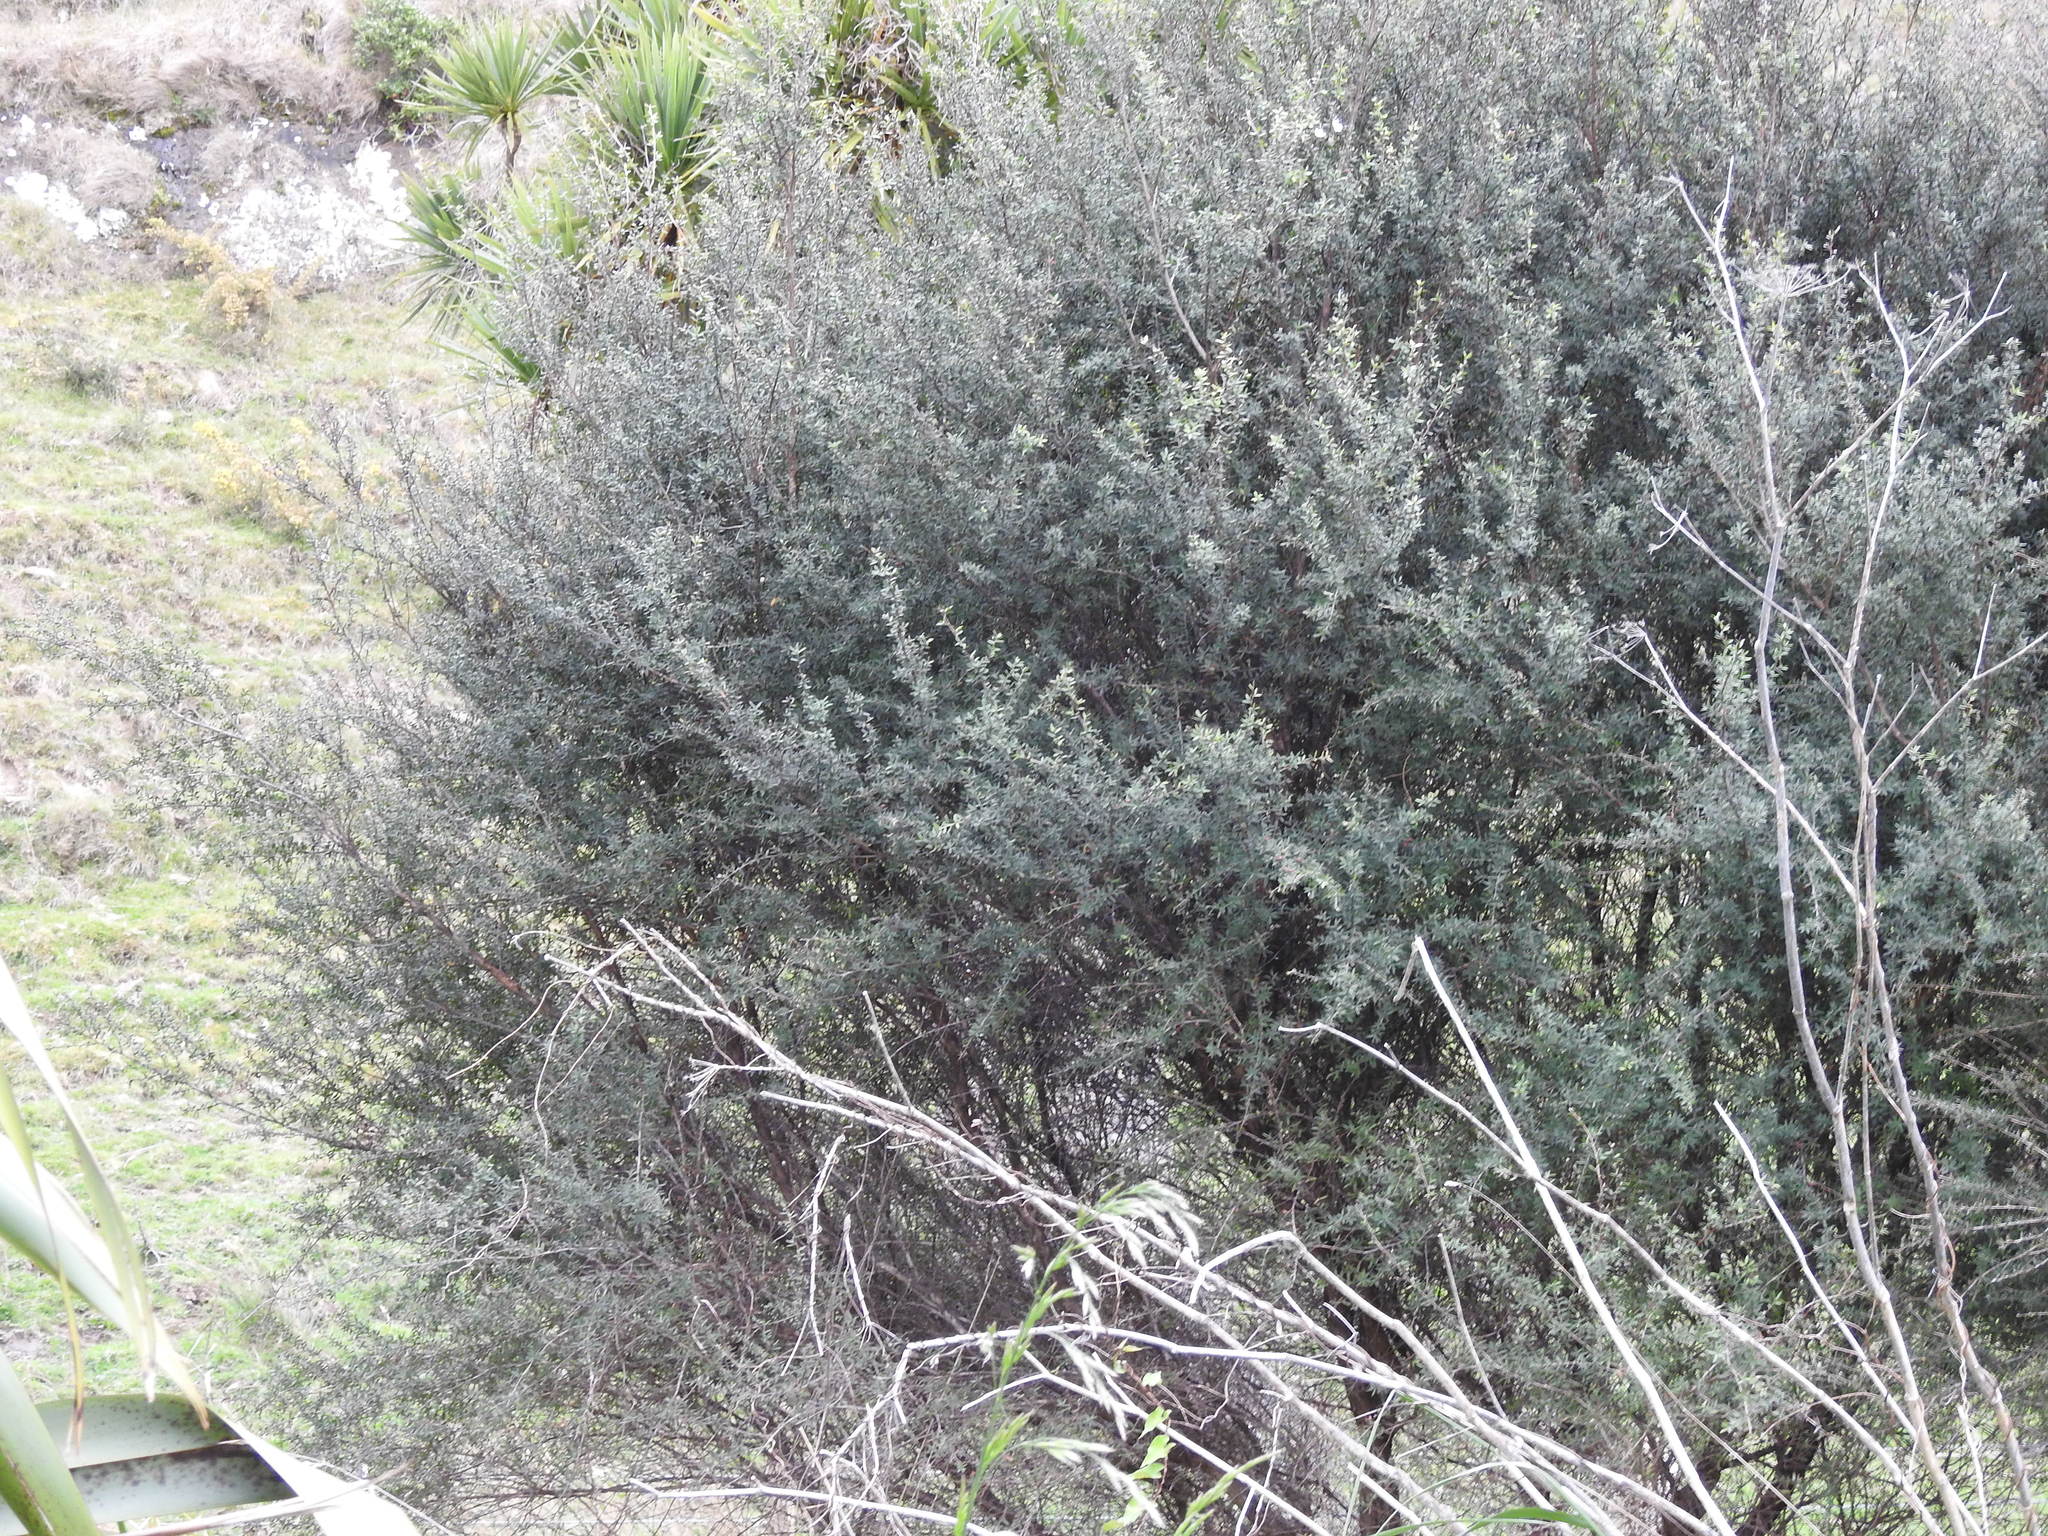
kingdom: Plantae
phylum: Tracheophyta
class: Magnoliopsida
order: Myrtales
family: Myrtaceae
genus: Leptospermum
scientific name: Leptospermum scoparium
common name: Broom tea-tree
